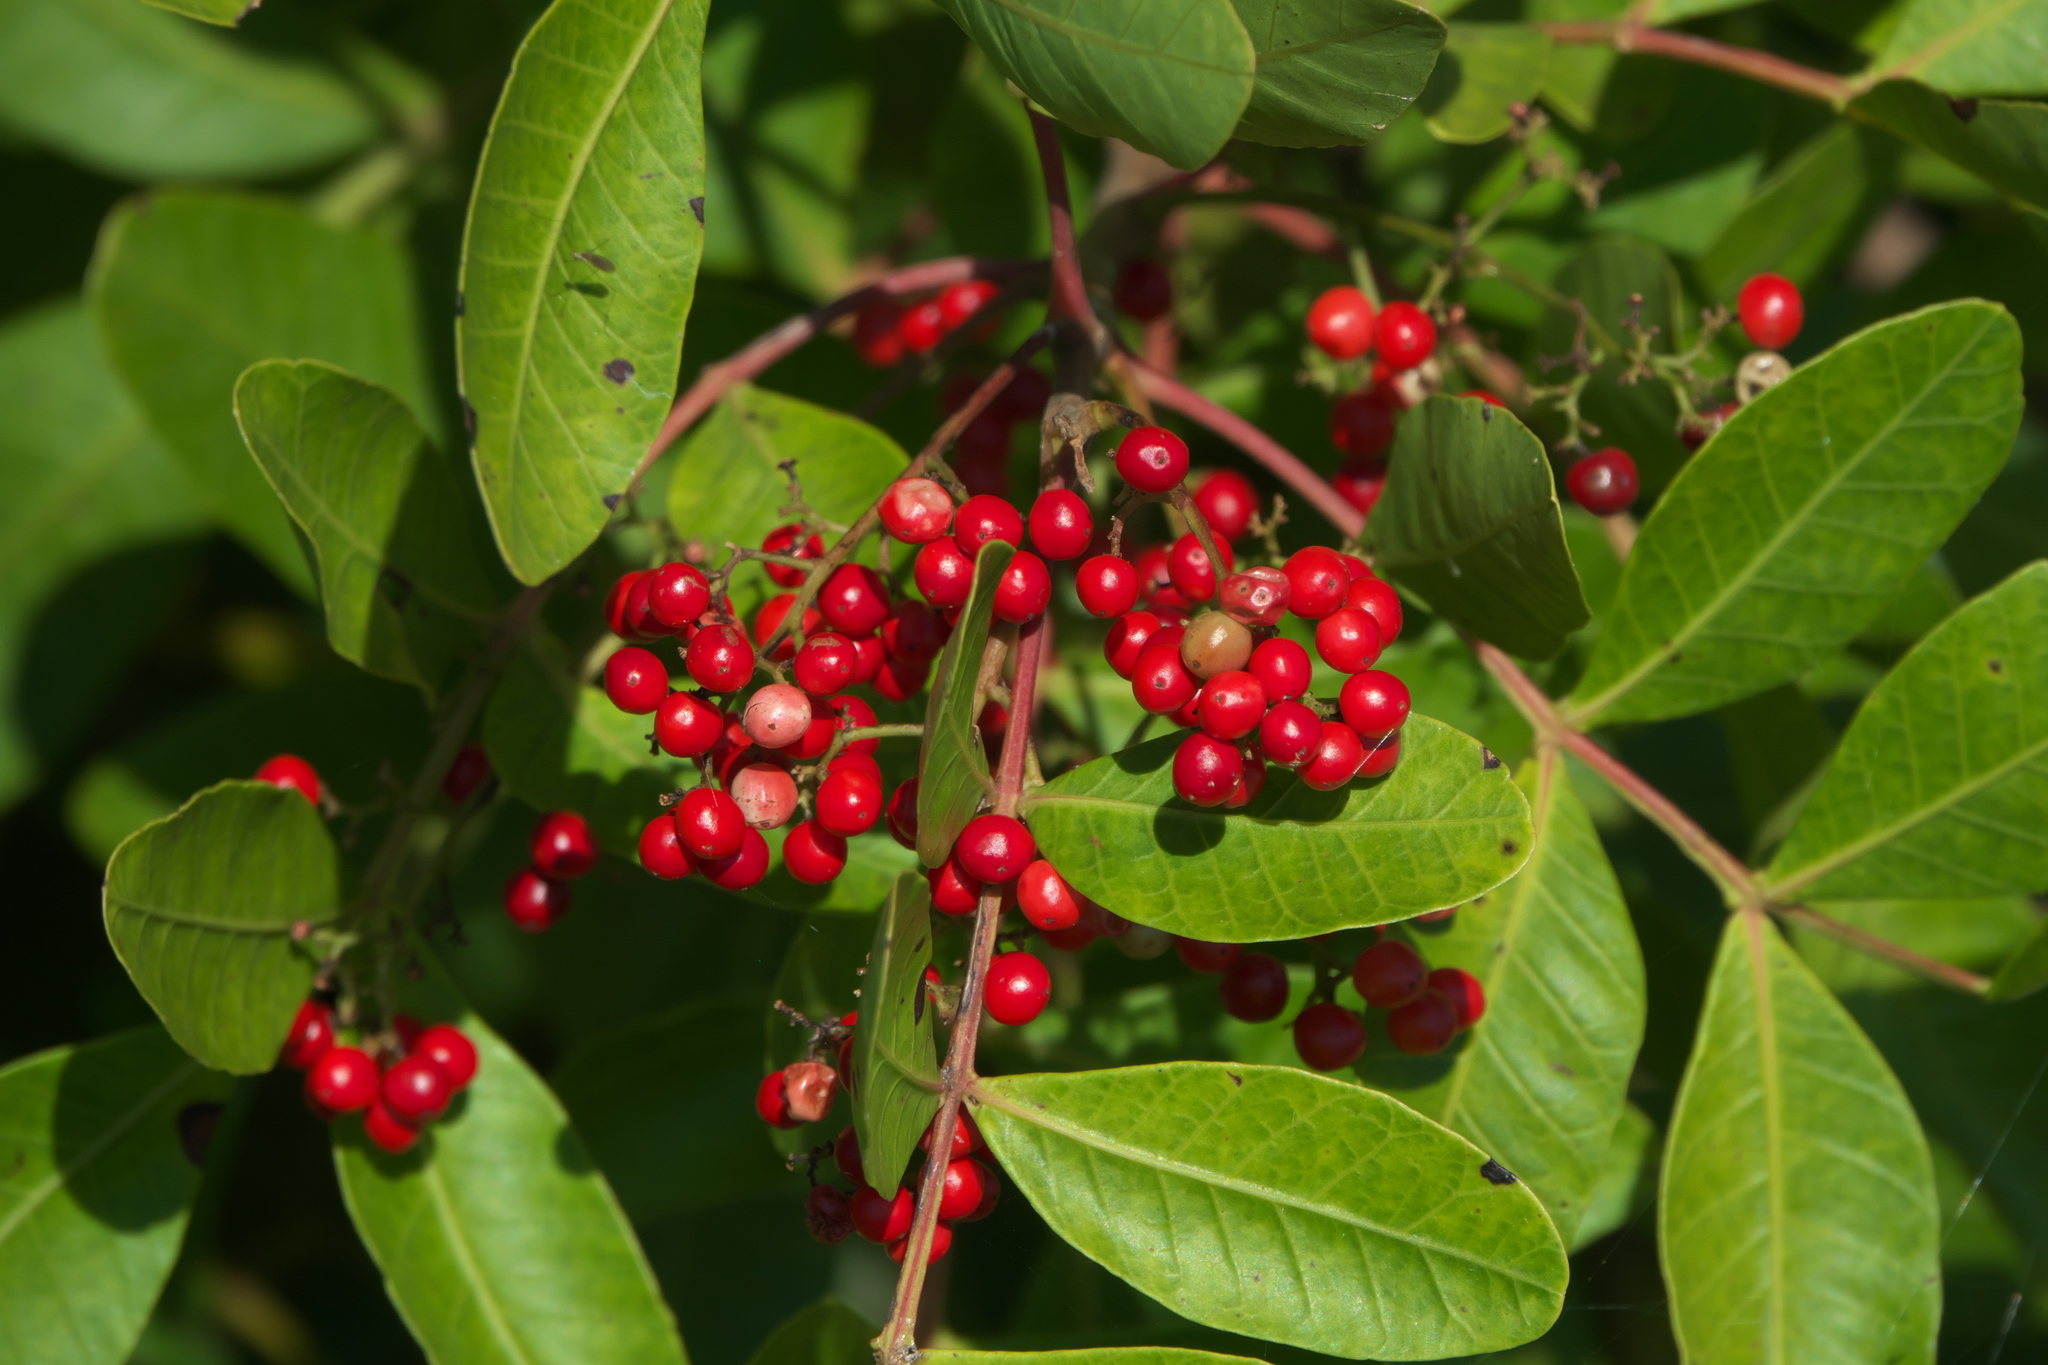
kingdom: Plantae
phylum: Tracheophyta
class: Magnoliopsida
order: Sapindales
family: Anacardiaceae
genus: Schinus
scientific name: Schinus terebinthifolia
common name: Brazilian peppertree
